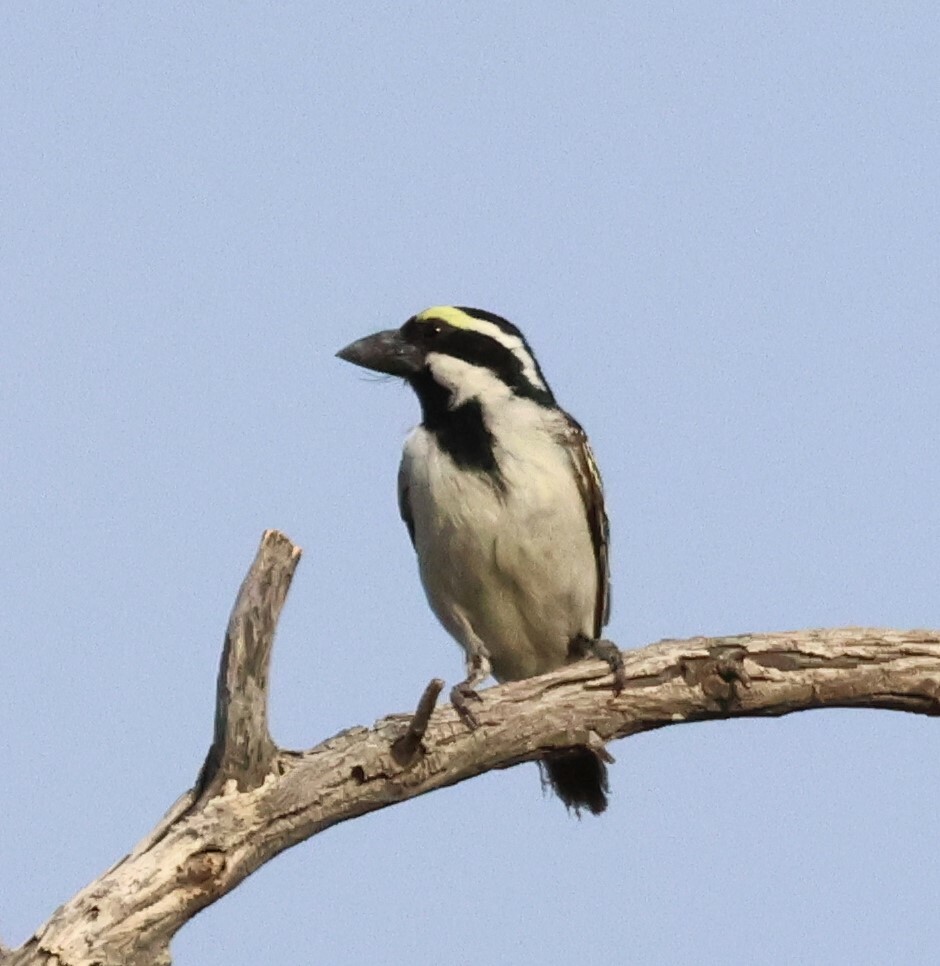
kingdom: Animalia
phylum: Chordata
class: Aves
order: Piciformes
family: Lybiidae
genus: Tricholaema
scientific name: Tricholaema leucomelas
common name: Acacia pied barbet
